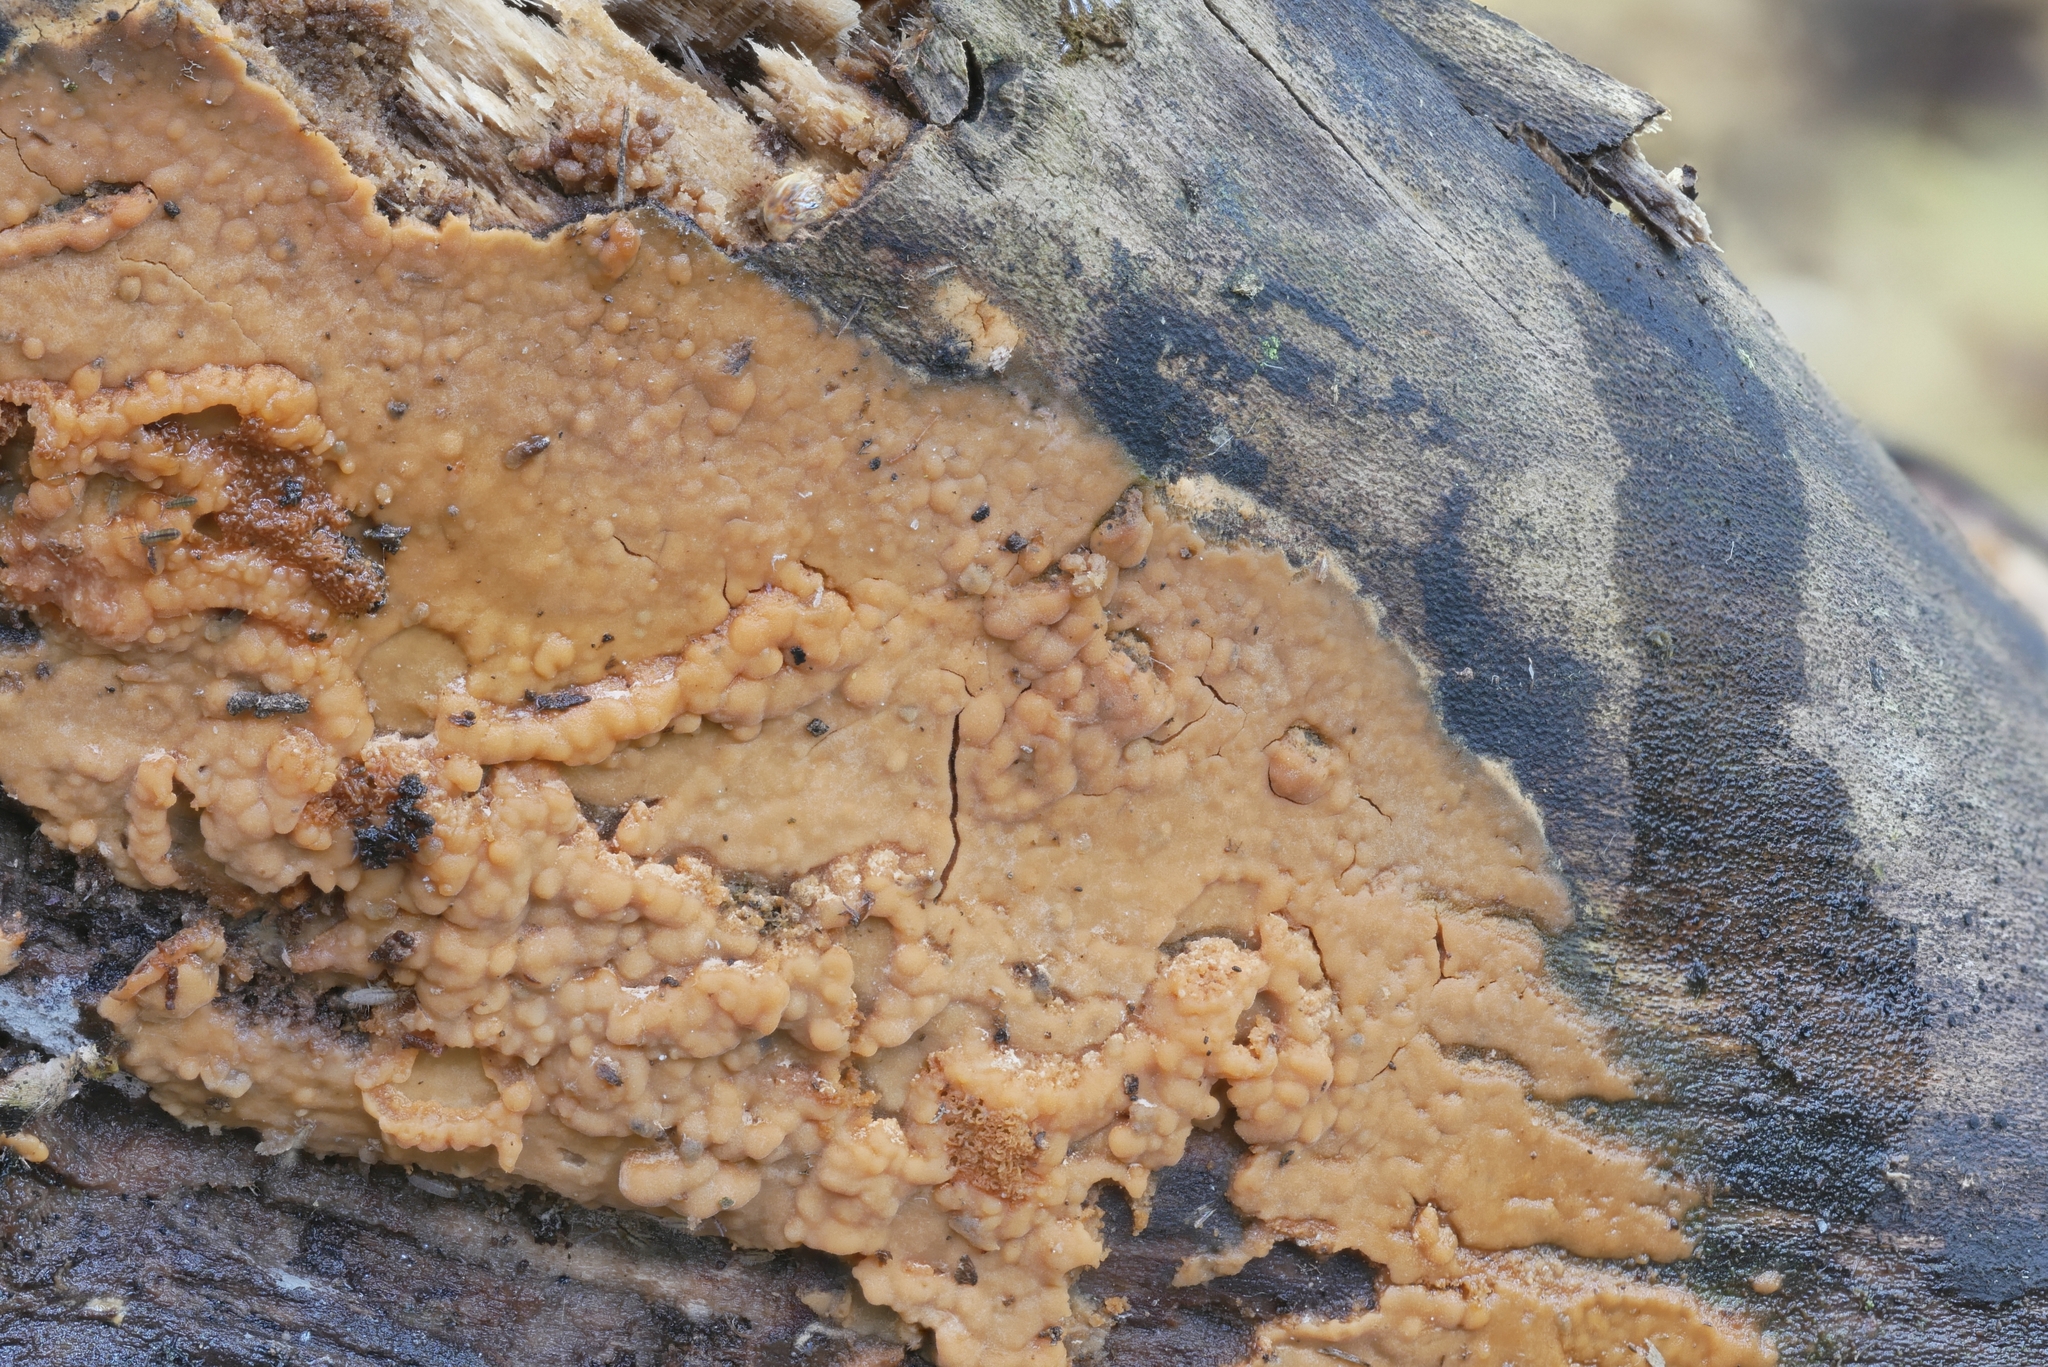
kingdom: Fungi
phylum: Basidiomycota
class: Agaricomycetes
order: Russulales
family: Peniophoraceae
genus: Dichostereum
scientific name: Dichostereum effuscatum
